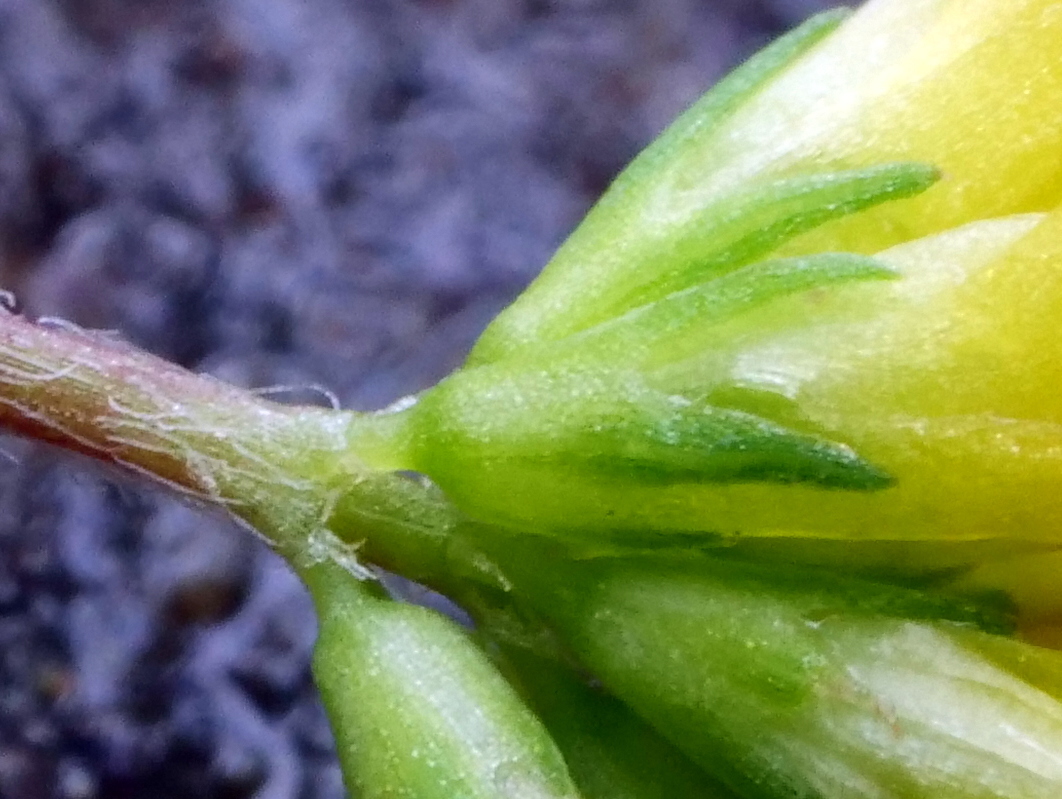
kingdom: Plantae
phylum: Tracheophyta
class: Magnoliopsida
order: Fabales
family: Fabaceae
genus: Trifolium
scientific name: Trifolium dubium
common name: Suckling clover
